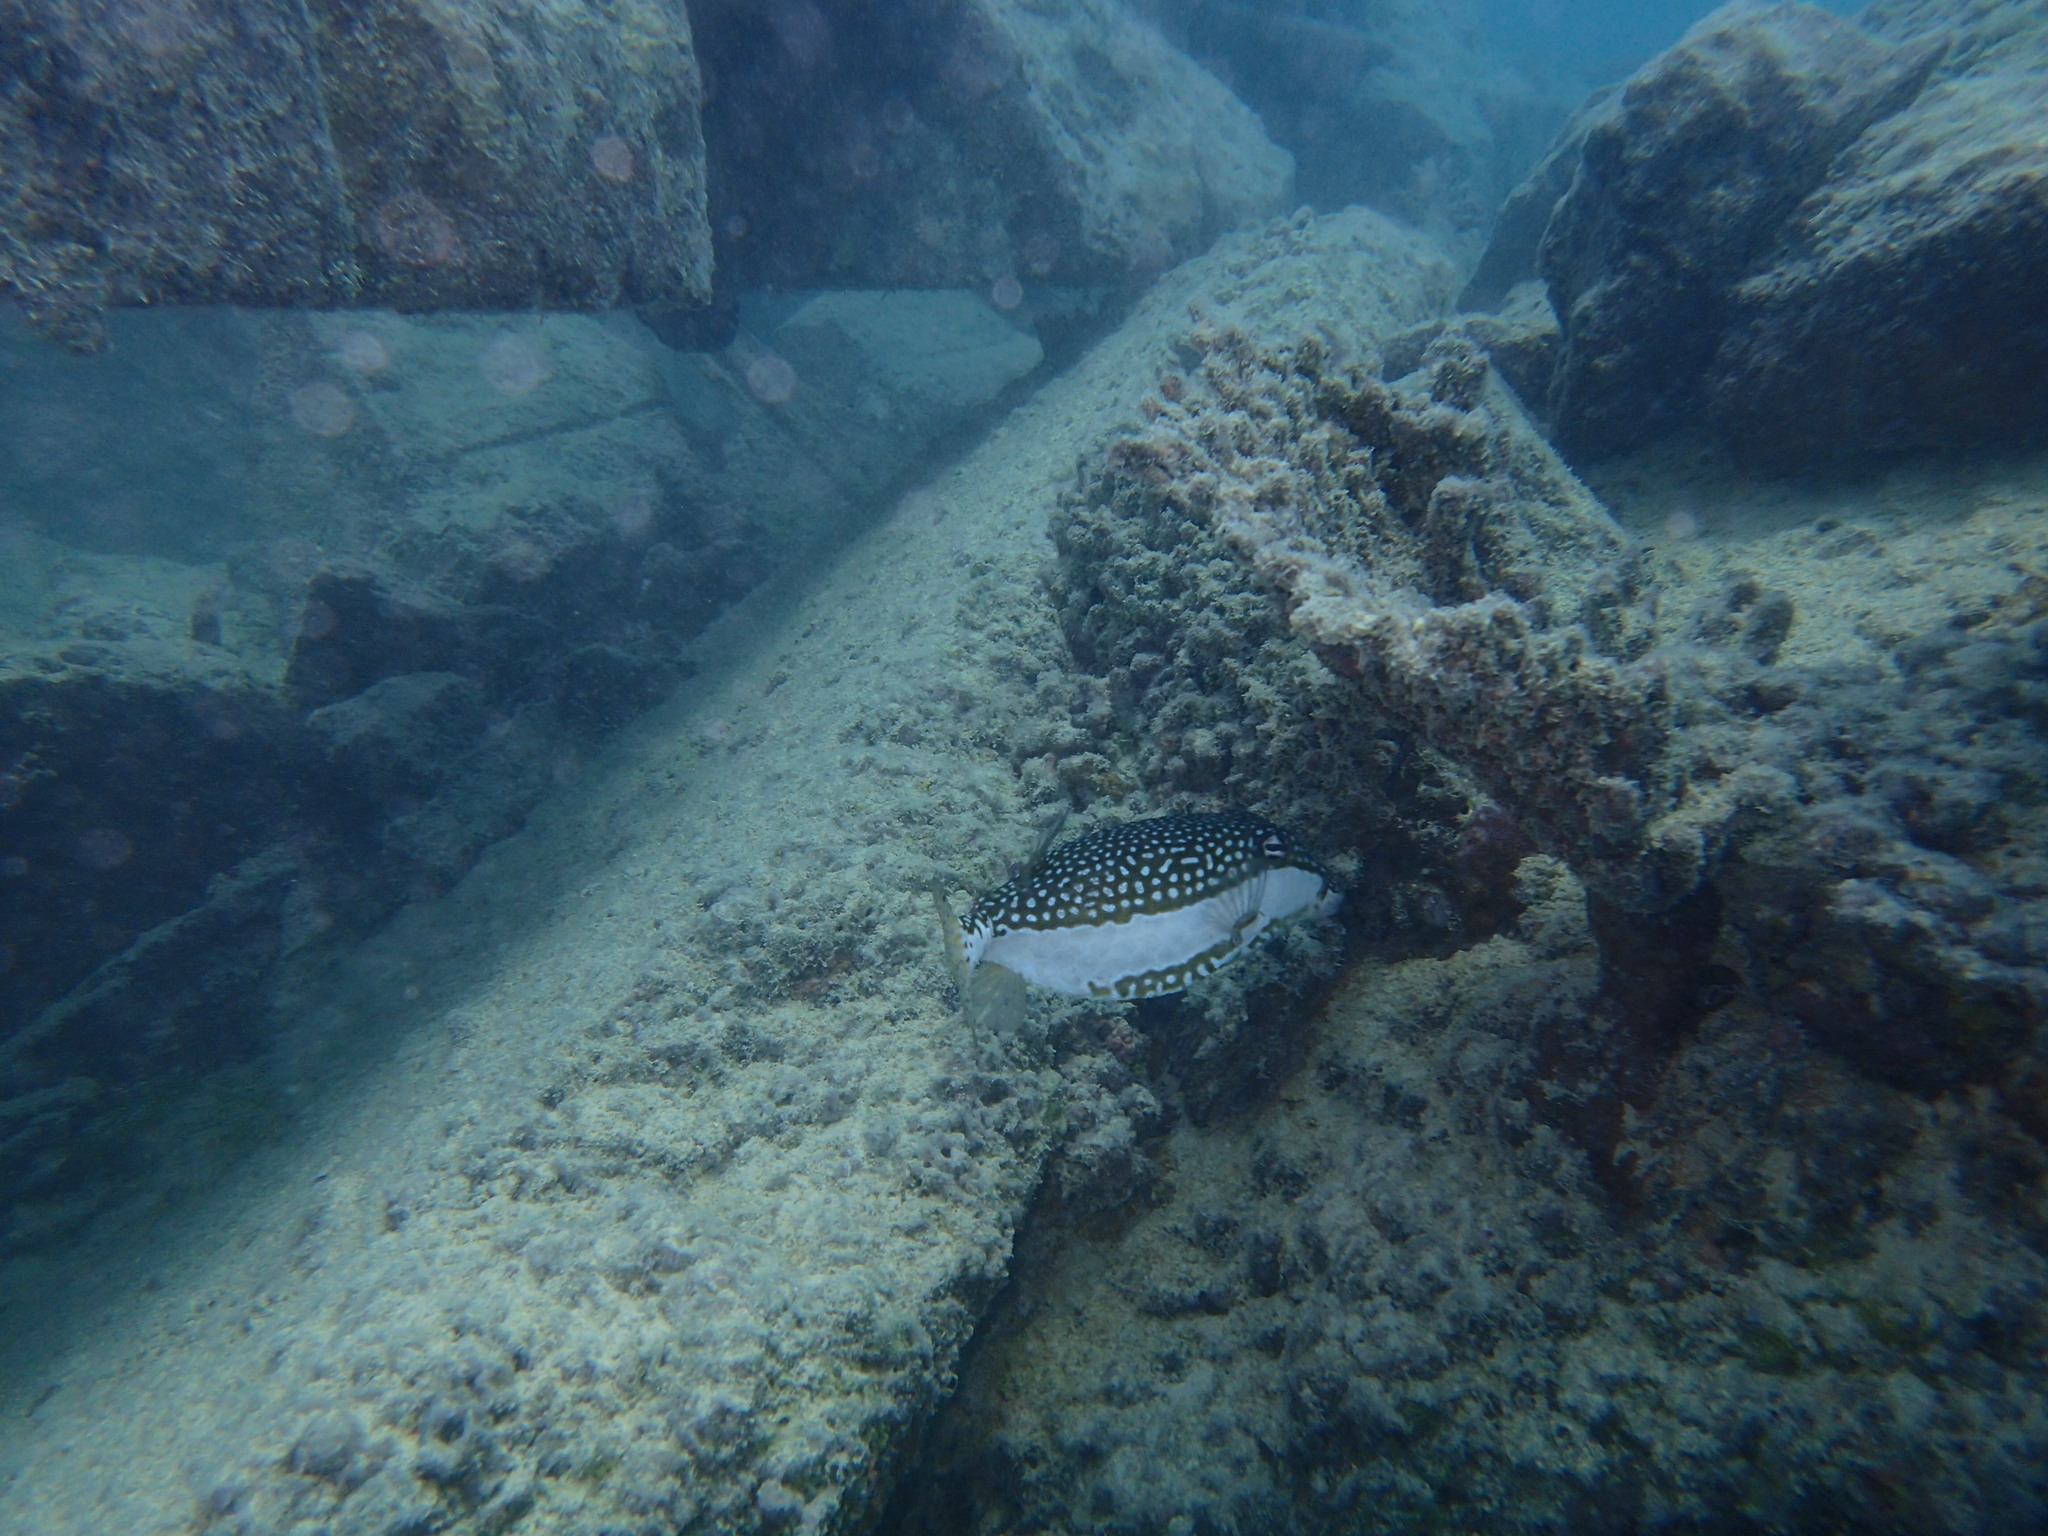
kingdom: Animalia
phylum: Chordata
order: Tetraodontiformes
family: Ostraciidae
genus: Ostracion
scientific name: Ostracion whitleyi
